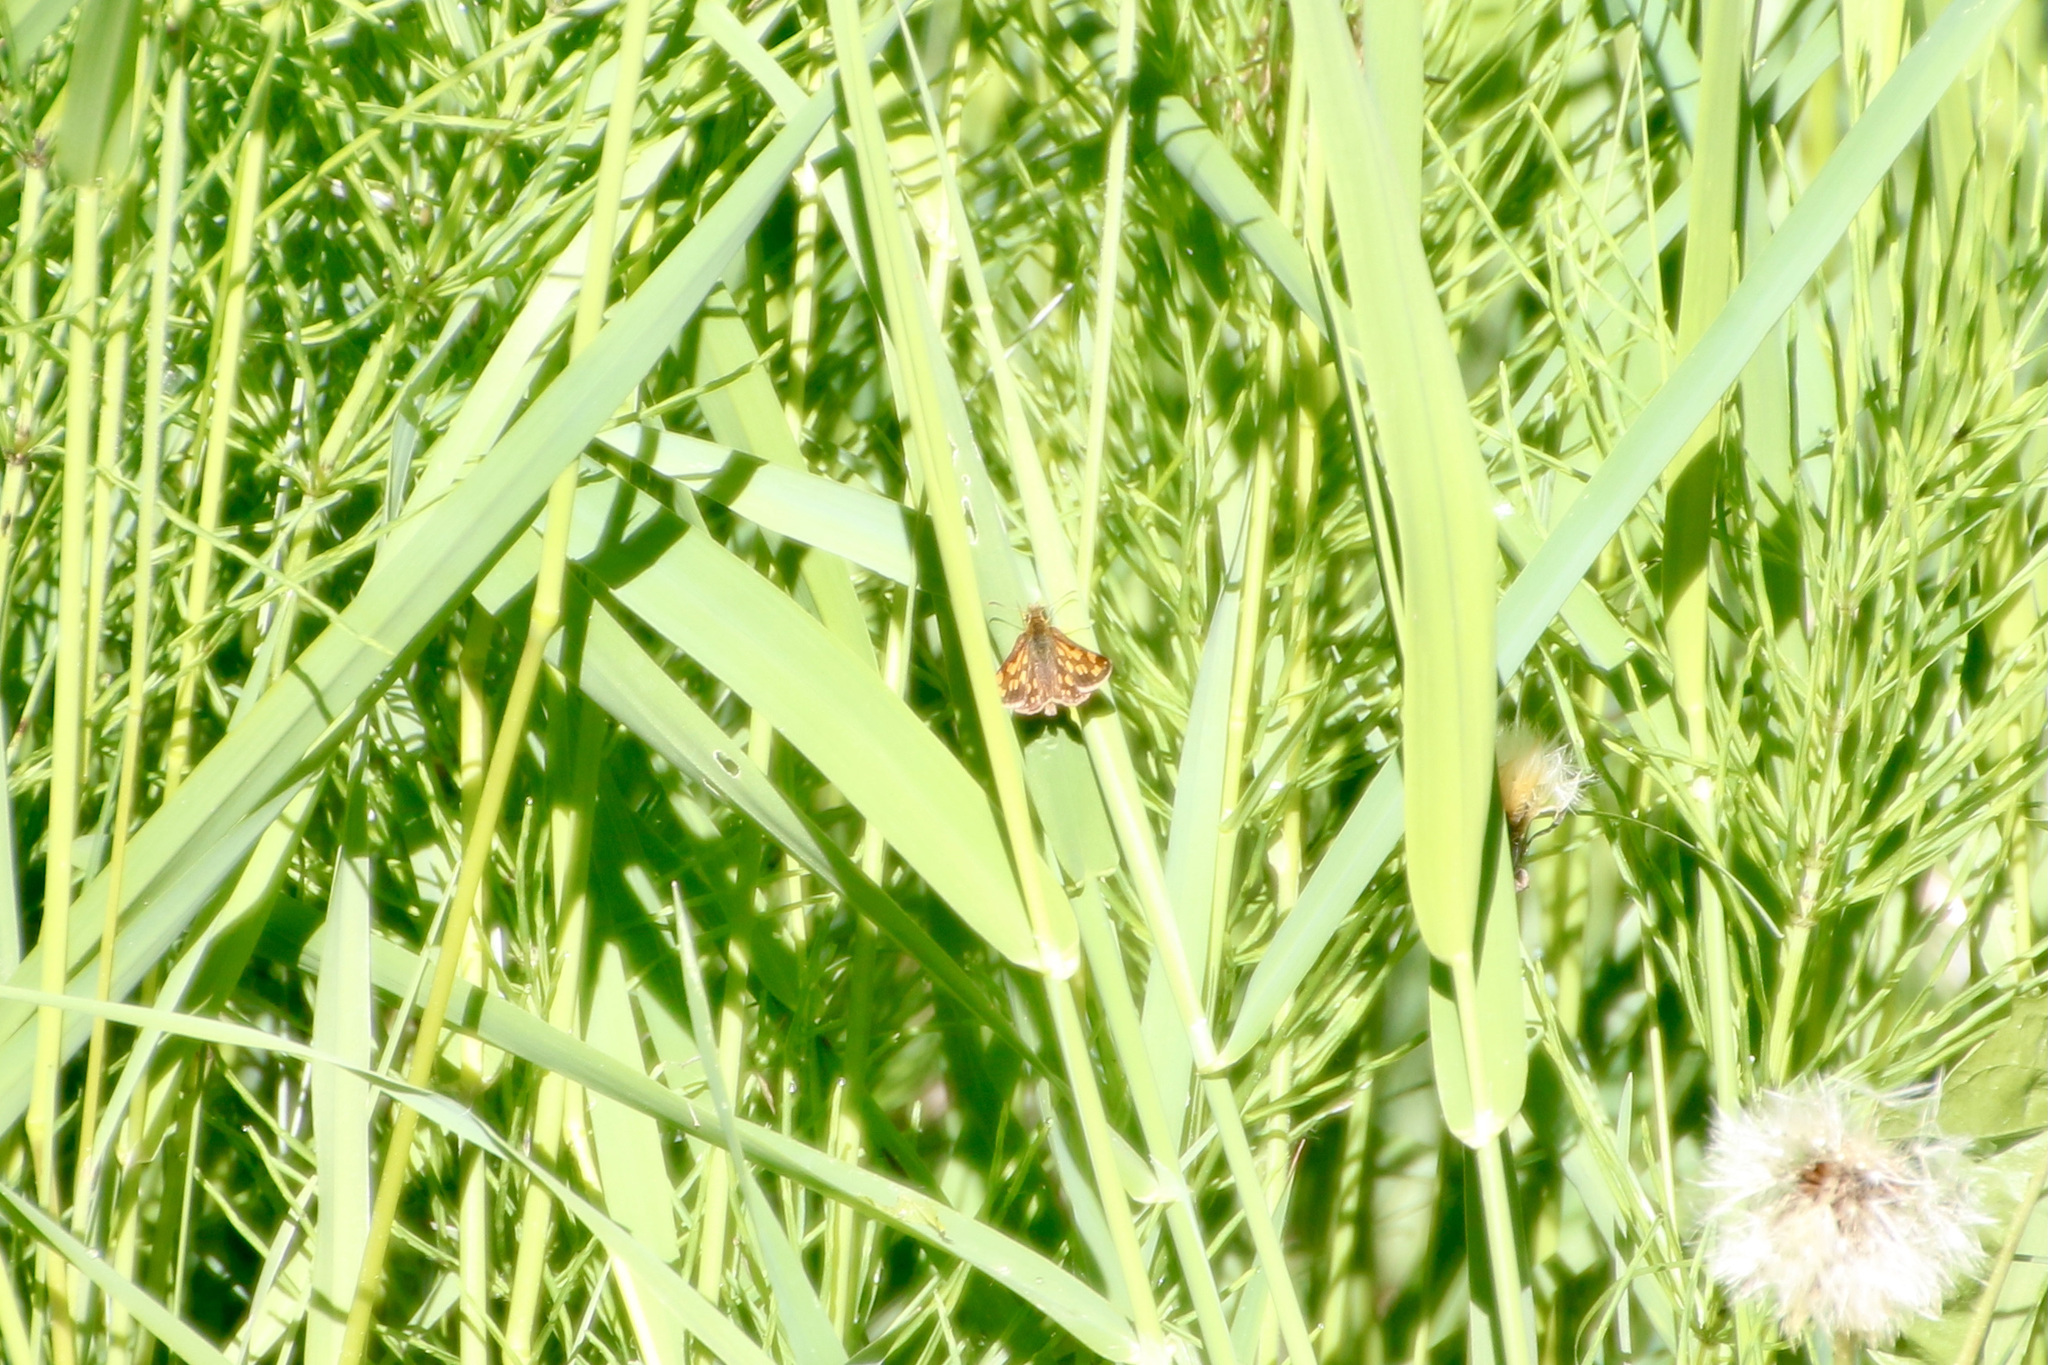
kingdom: Animalia
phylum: Arthropoda
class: Insecta
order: Lepidoptera
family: Hesperiidae
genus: Carterocephalus
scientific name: Carterocephalus mandan
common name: Arctic skipperling
